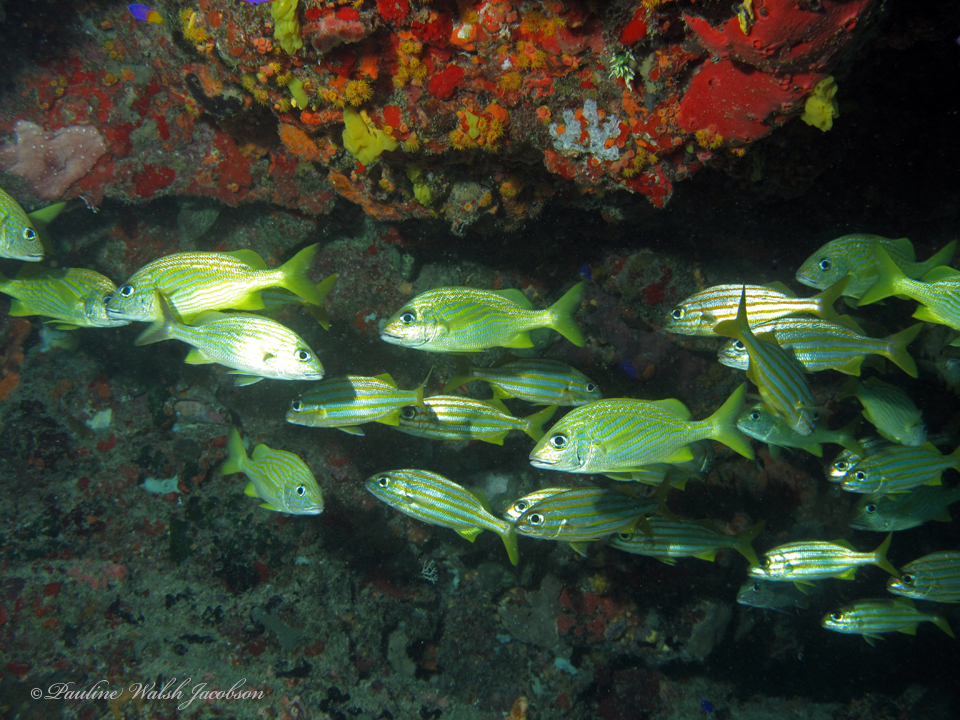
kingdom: Animalia
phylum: Chordata
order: Perciformes
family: Haemulidae
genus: Haemulon
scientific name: Haemulon chrysargyreum
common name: Smallmouth grunt
